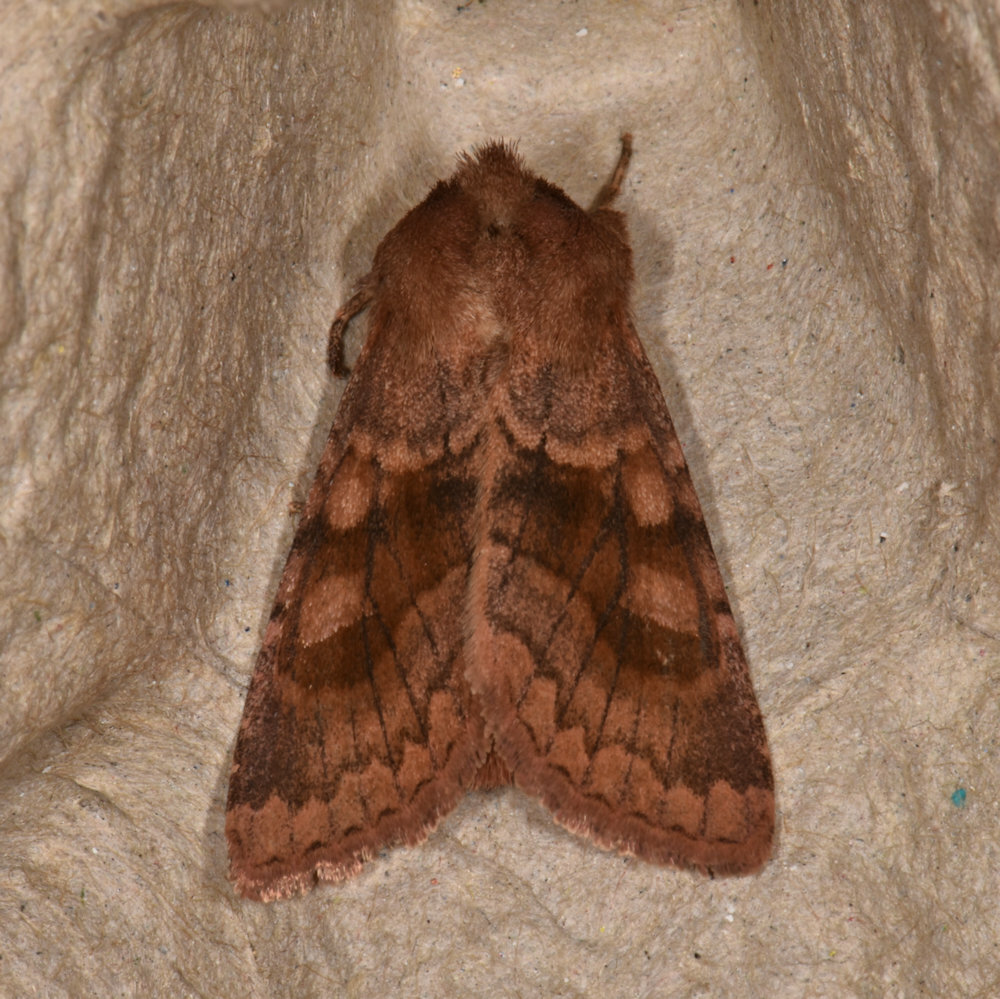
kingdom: Animalia
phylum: Arthropoda
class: Insecta
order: Lepidoptera
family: Noctuidae
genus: Nephelodes
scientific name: Nephelodes minians
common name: Bronzed cutworm
